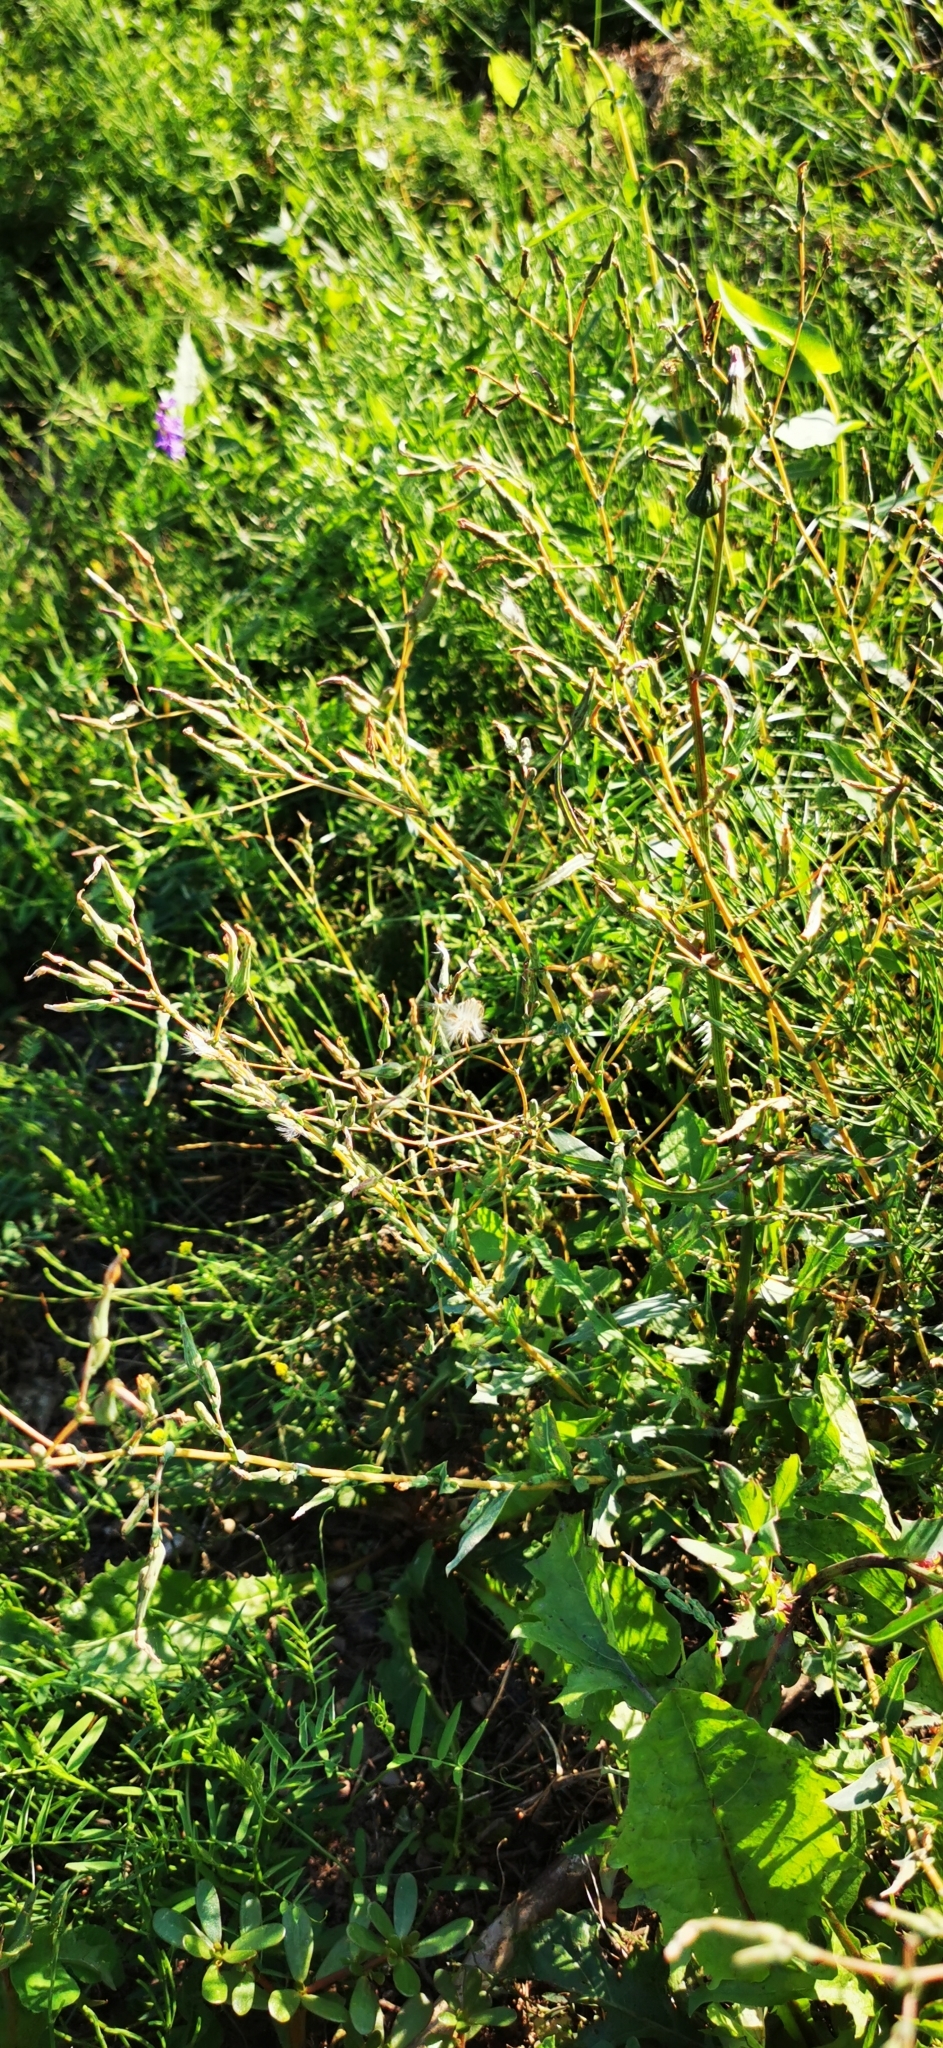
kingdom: Plantae
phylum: Tracheophyta
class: Magnoliopsida
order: Asterales
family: Asteraceae
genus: Lactuca
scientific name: Lactuca serriola
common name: Prickly lettuce
